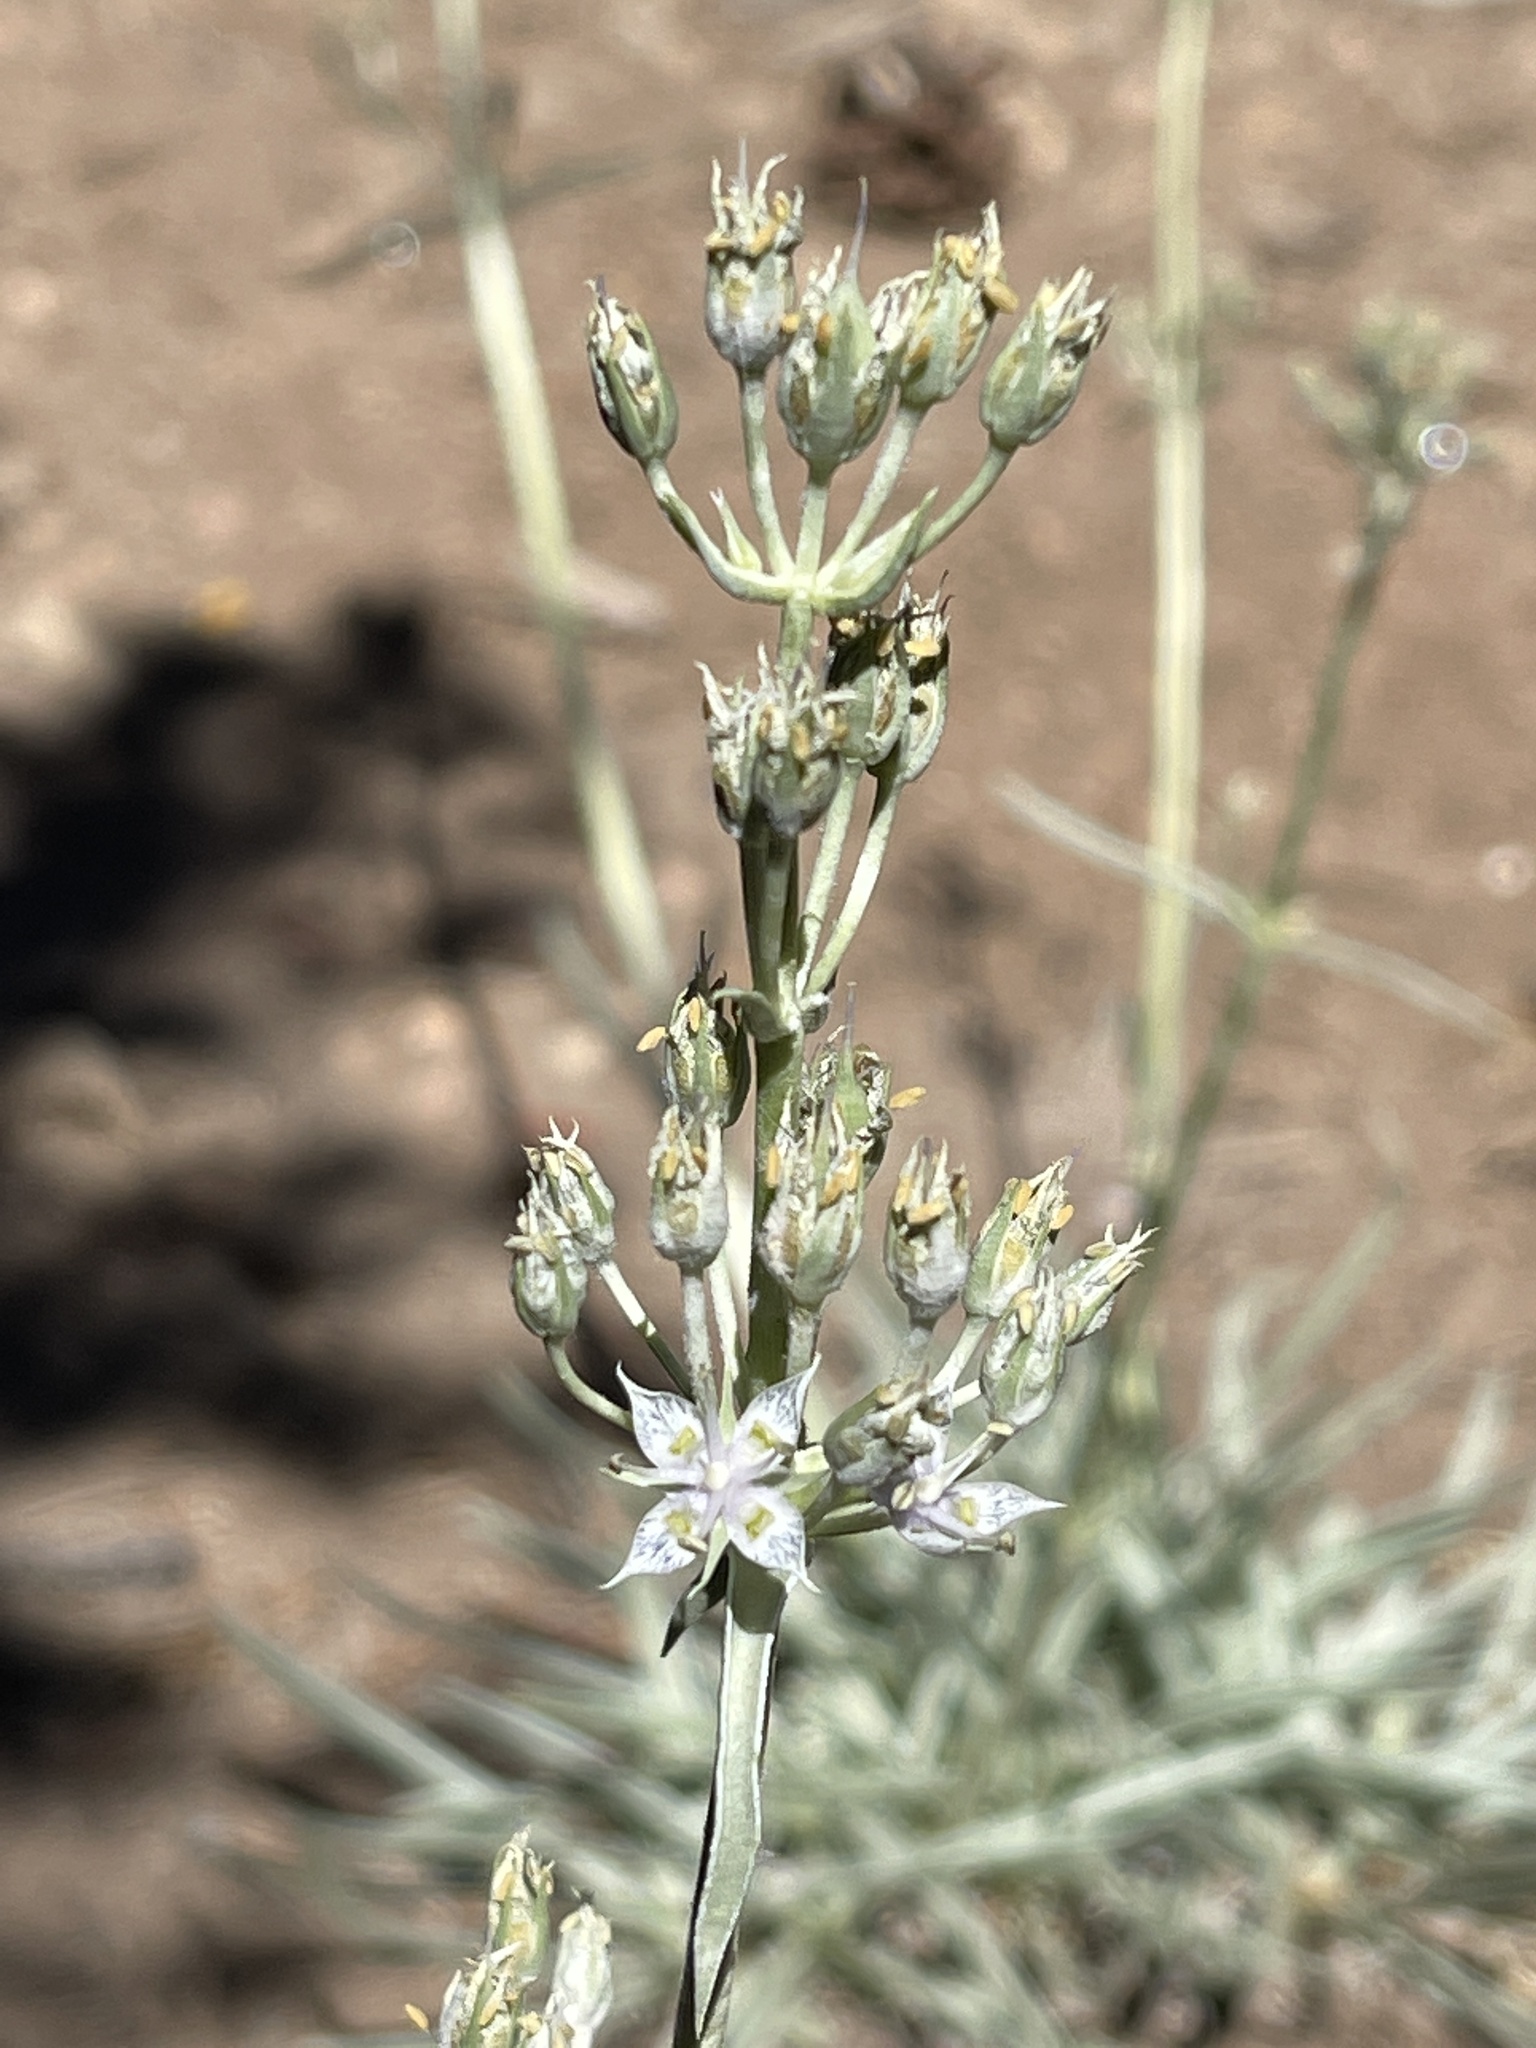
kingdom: Plantae
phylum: Tracheophyta
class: Magnoliopsida
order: Gentianales
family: Gentianaceae
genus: Frasera
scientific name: Frasera neglecta
